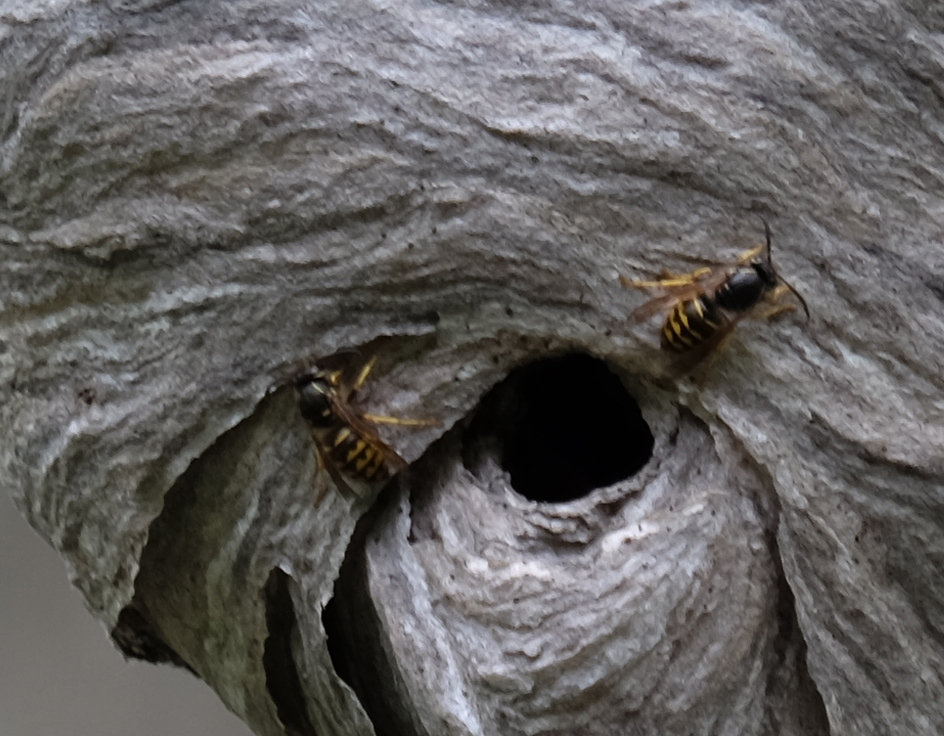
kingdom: Animalia
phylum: Arthropoda
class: Insecta
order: Hymenoptera
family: Vespidae
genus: Dolichovespula
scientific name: Dolichovespula arenaria
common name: Aerial yellowjacket
